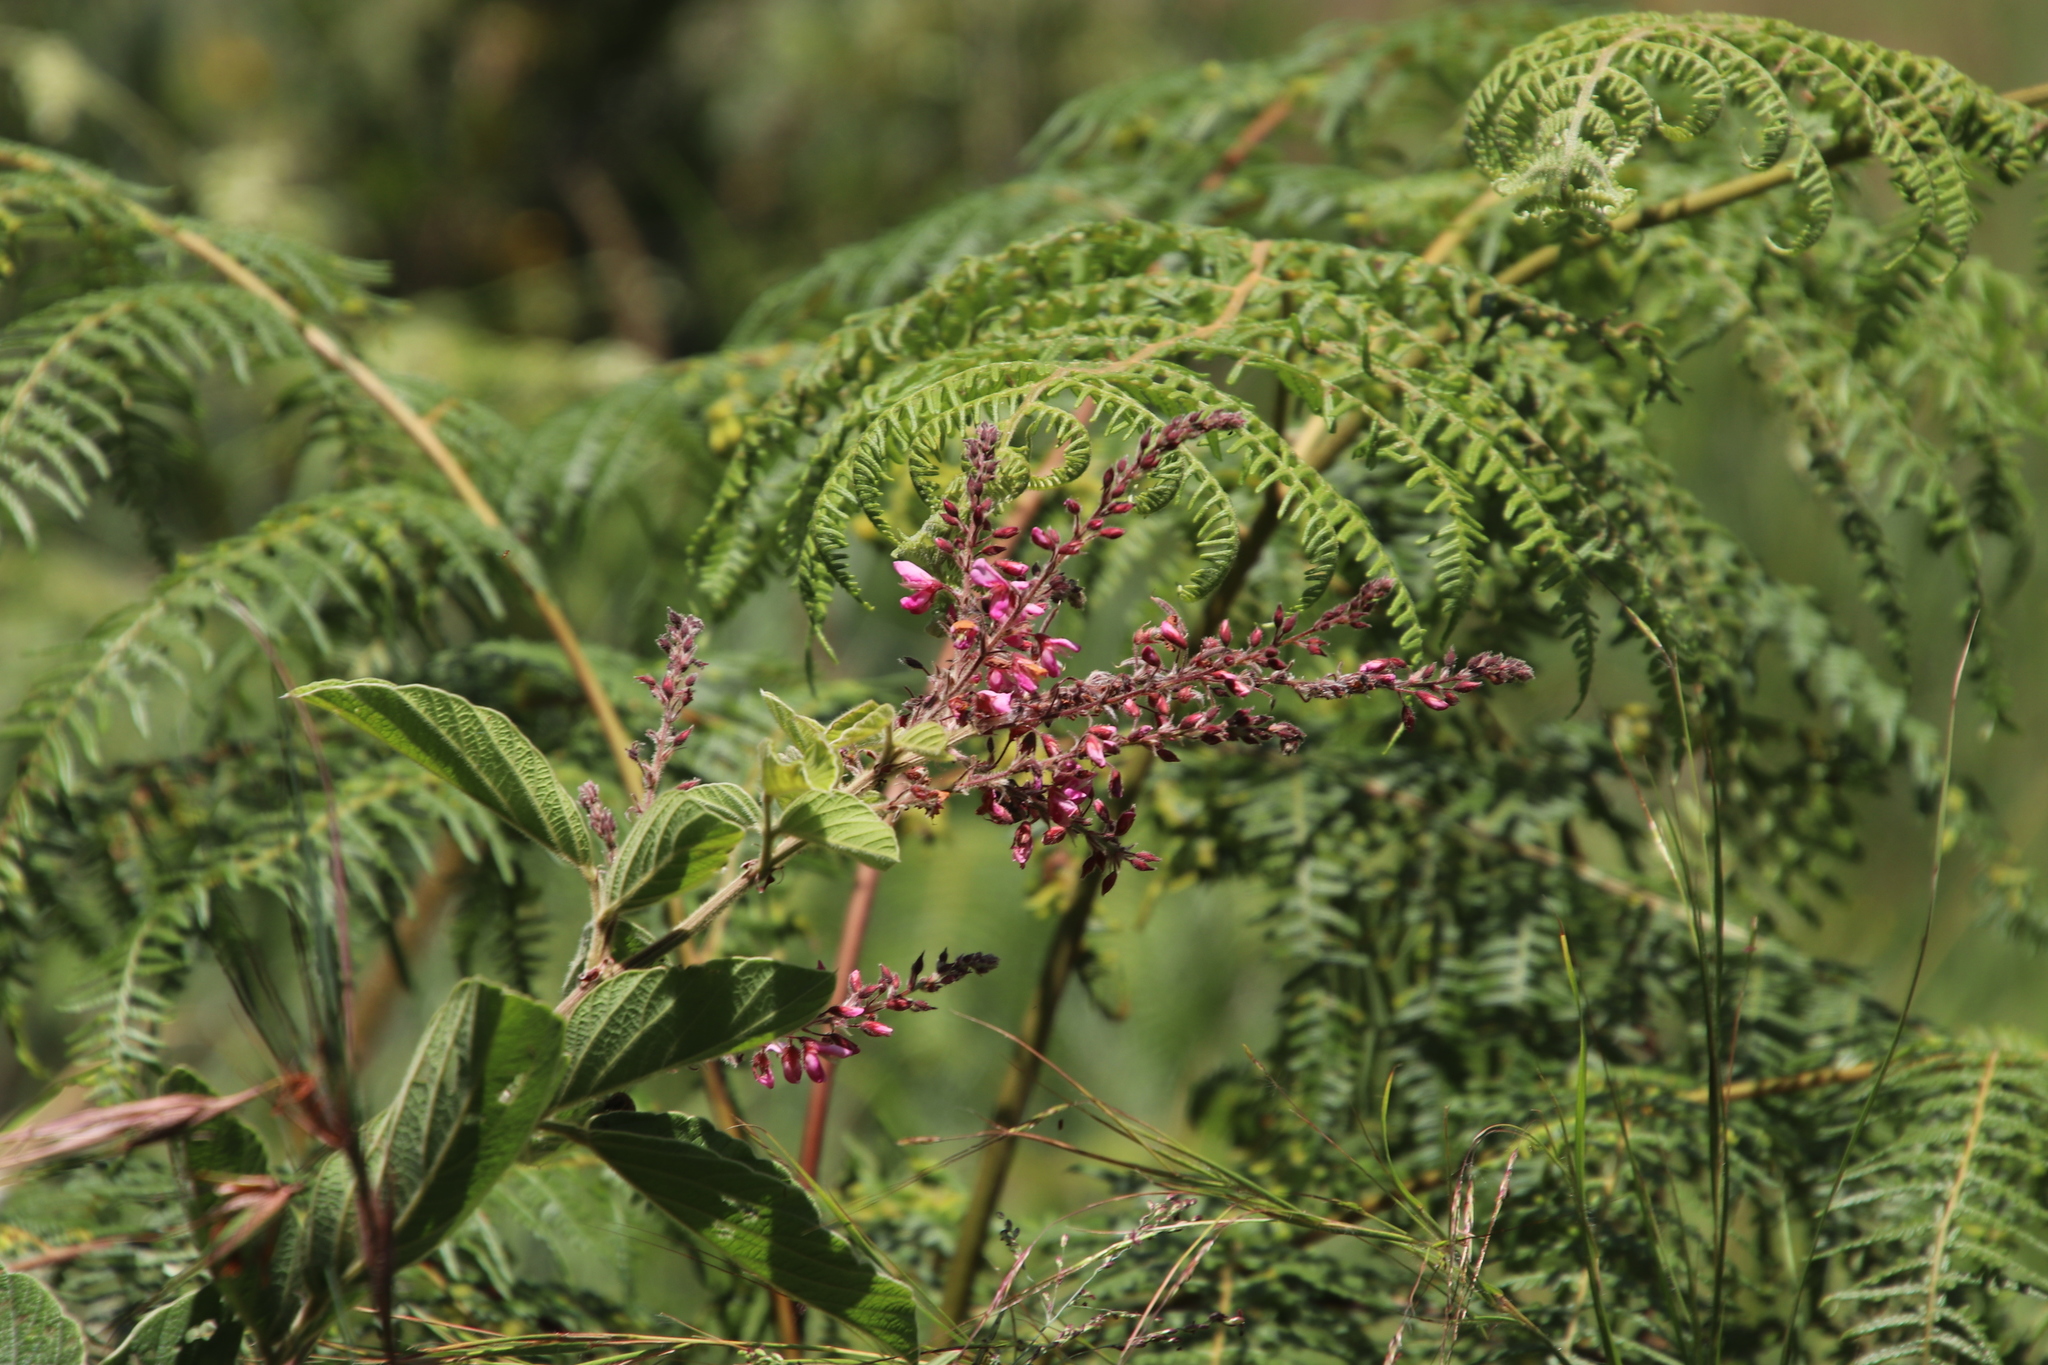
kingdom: Plantae
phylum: Tracheophyta
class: Magnoliopsida
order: Fabales
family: Fabaceae
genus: Pseudarthria
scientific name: Pseudarthria hookeri
